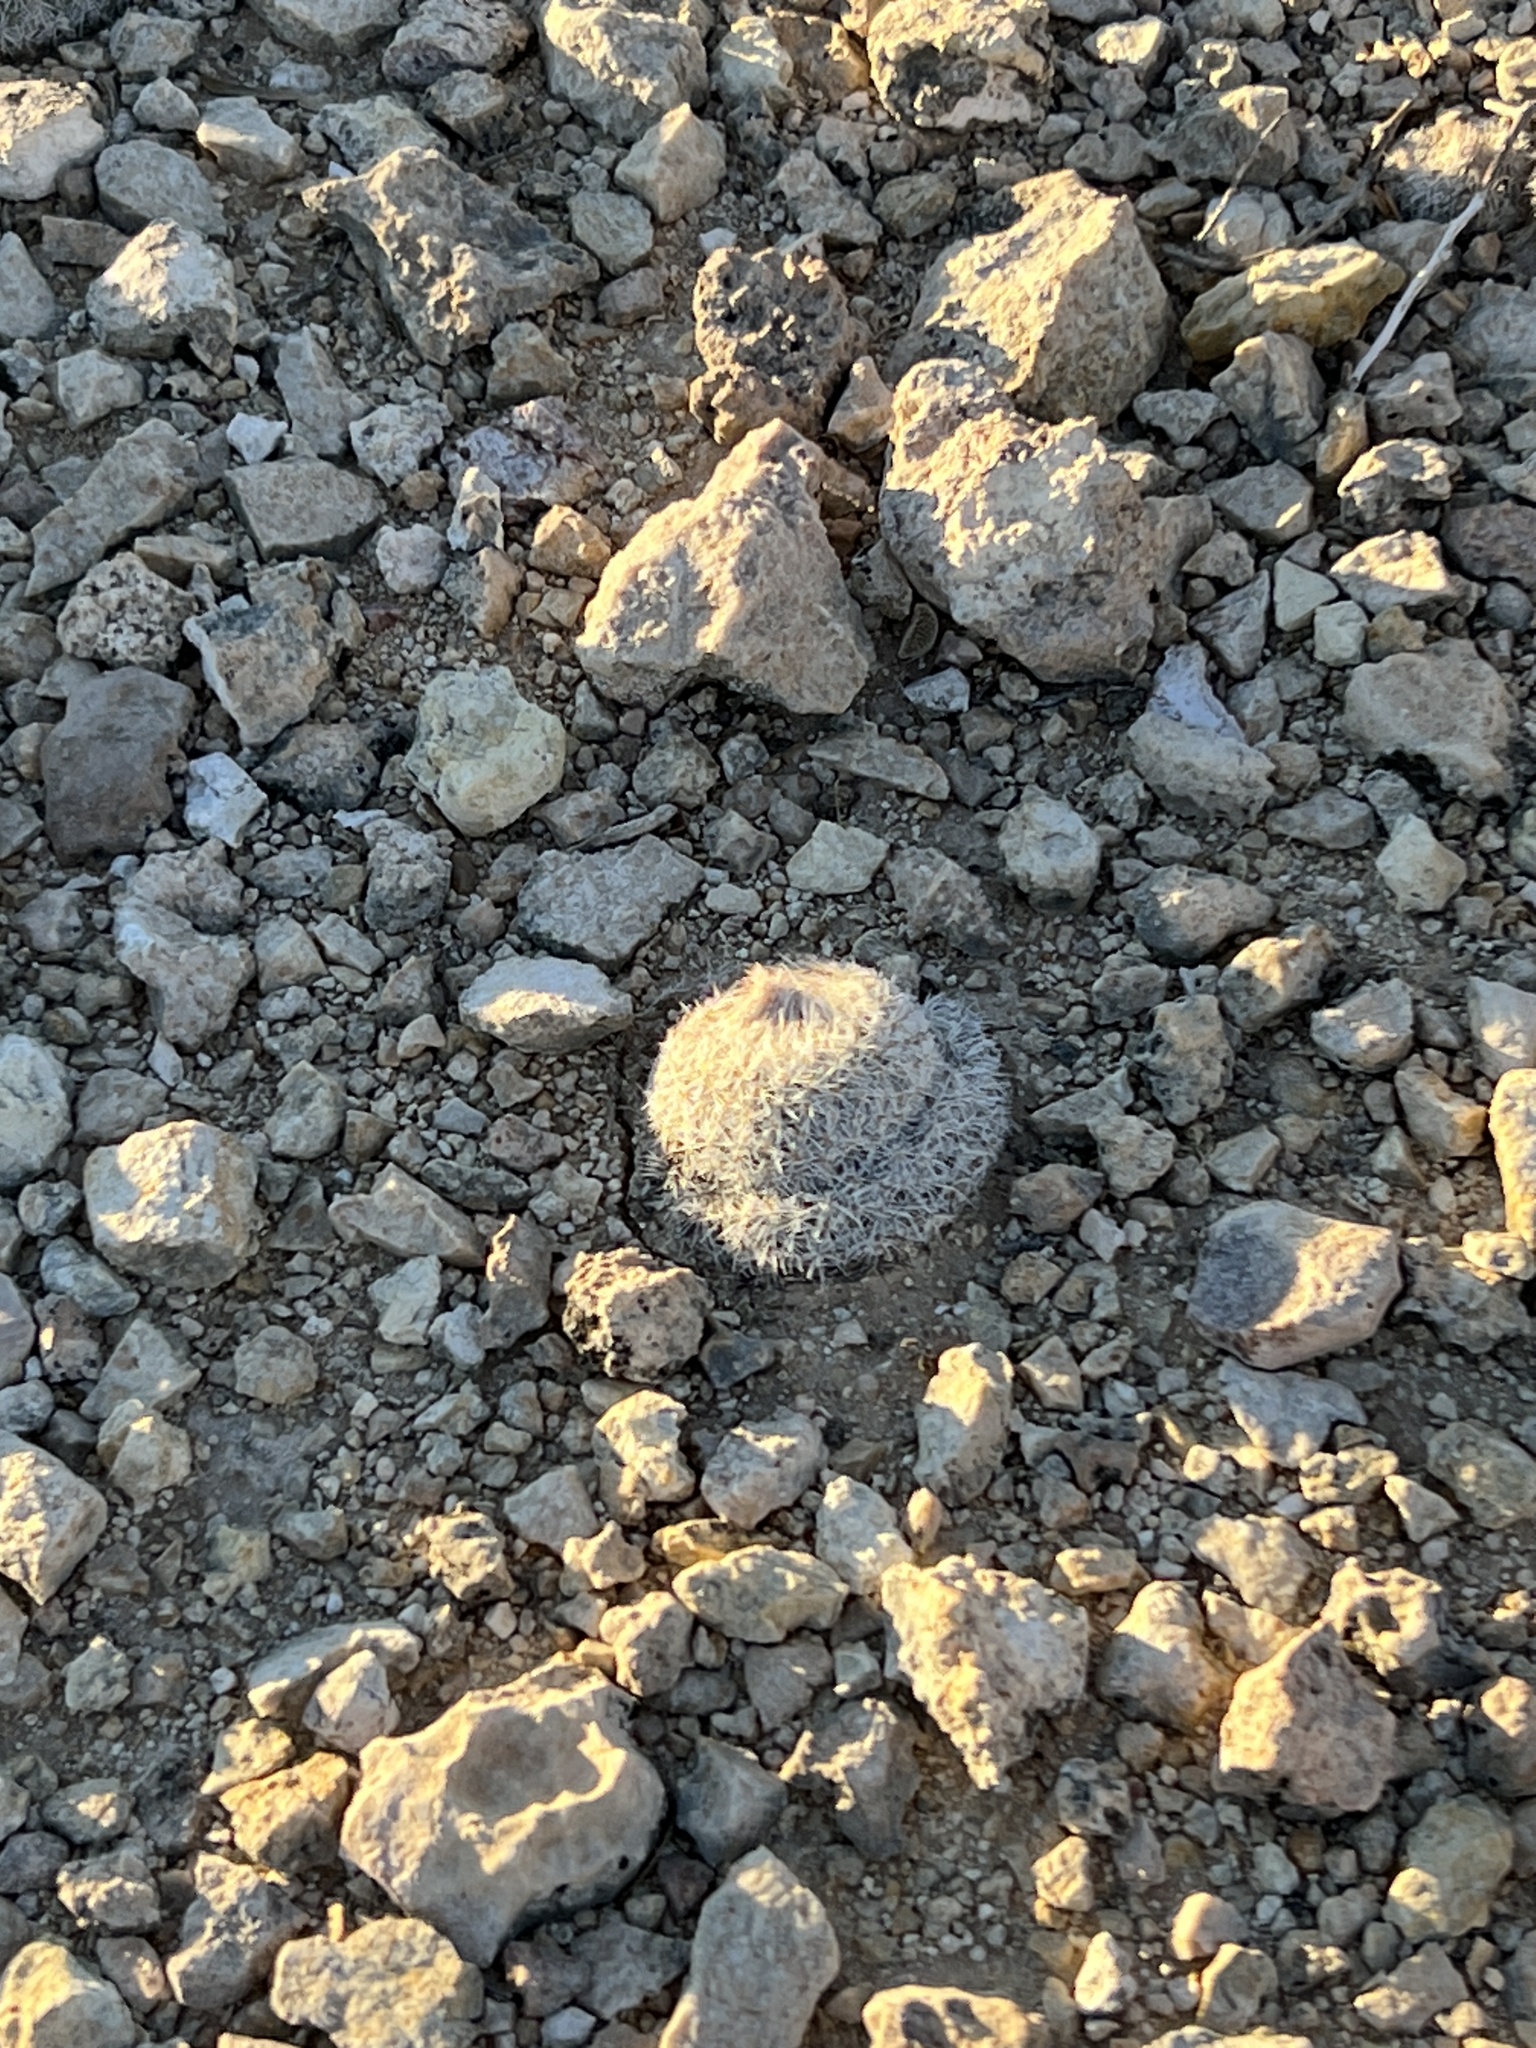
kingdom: Plantae
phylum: Tracheophyta
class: Magnoliopsida
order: Caryophyllales
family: Cactaceae
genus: Epithelantha
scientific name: Epithelantha micromeris
